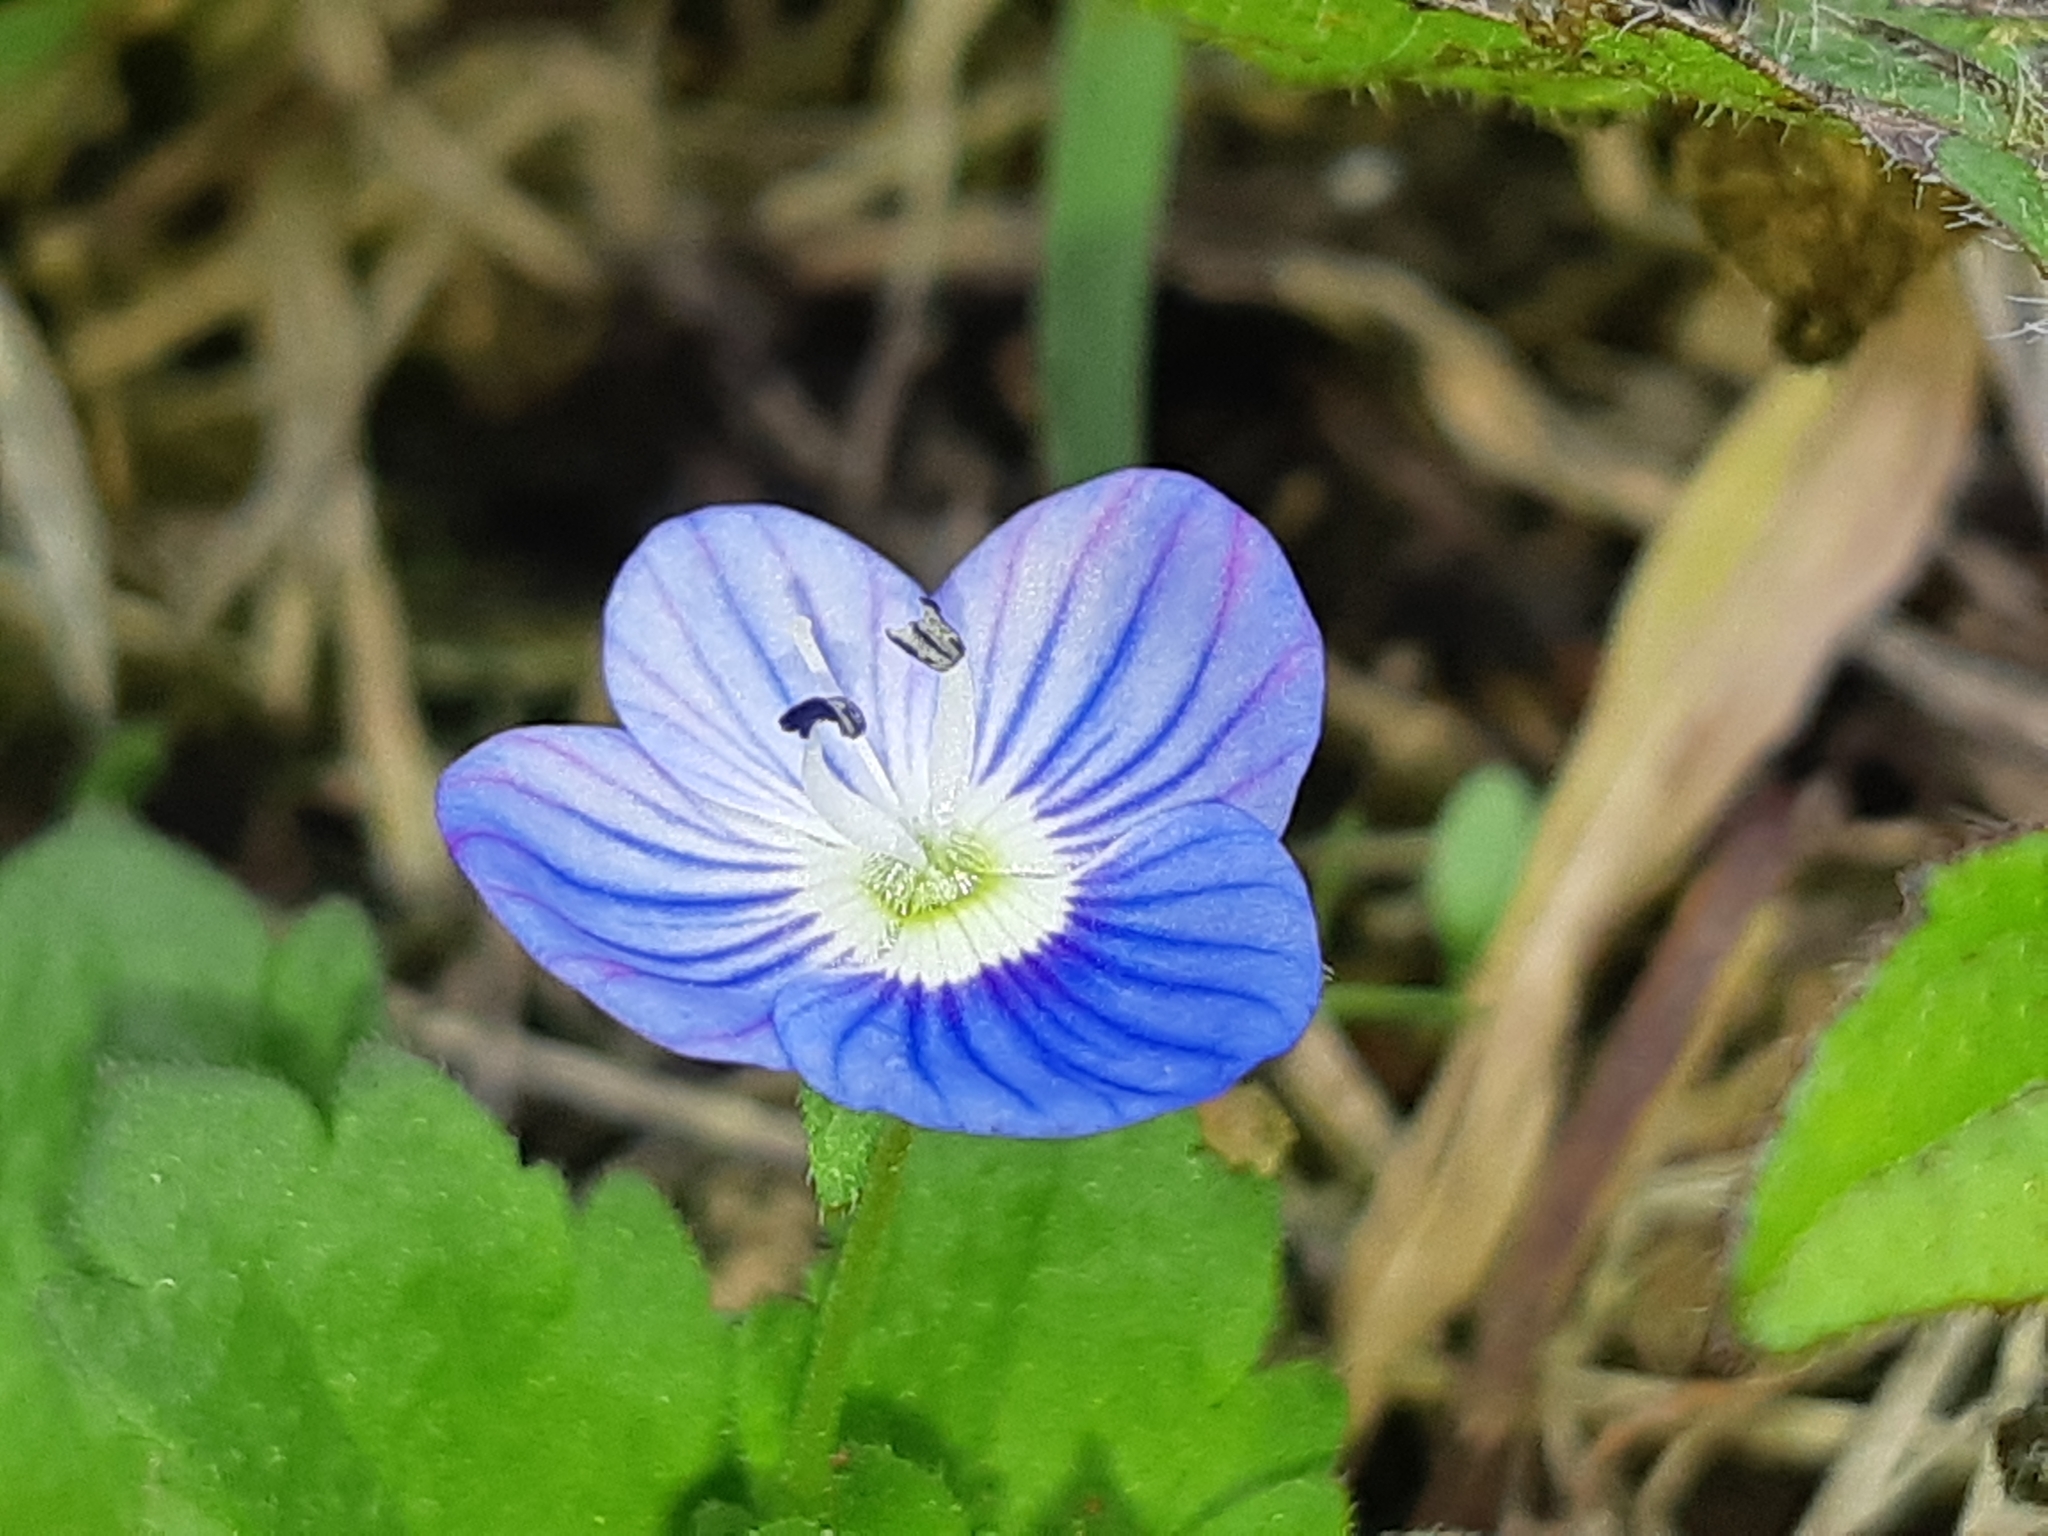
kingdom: Plantae
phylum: Tracheophyta
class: Magnoliopsida
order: Lamiales
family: Plantaginaceae
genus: Veronica
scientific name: Veronica persica
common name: Common field-speedwell
